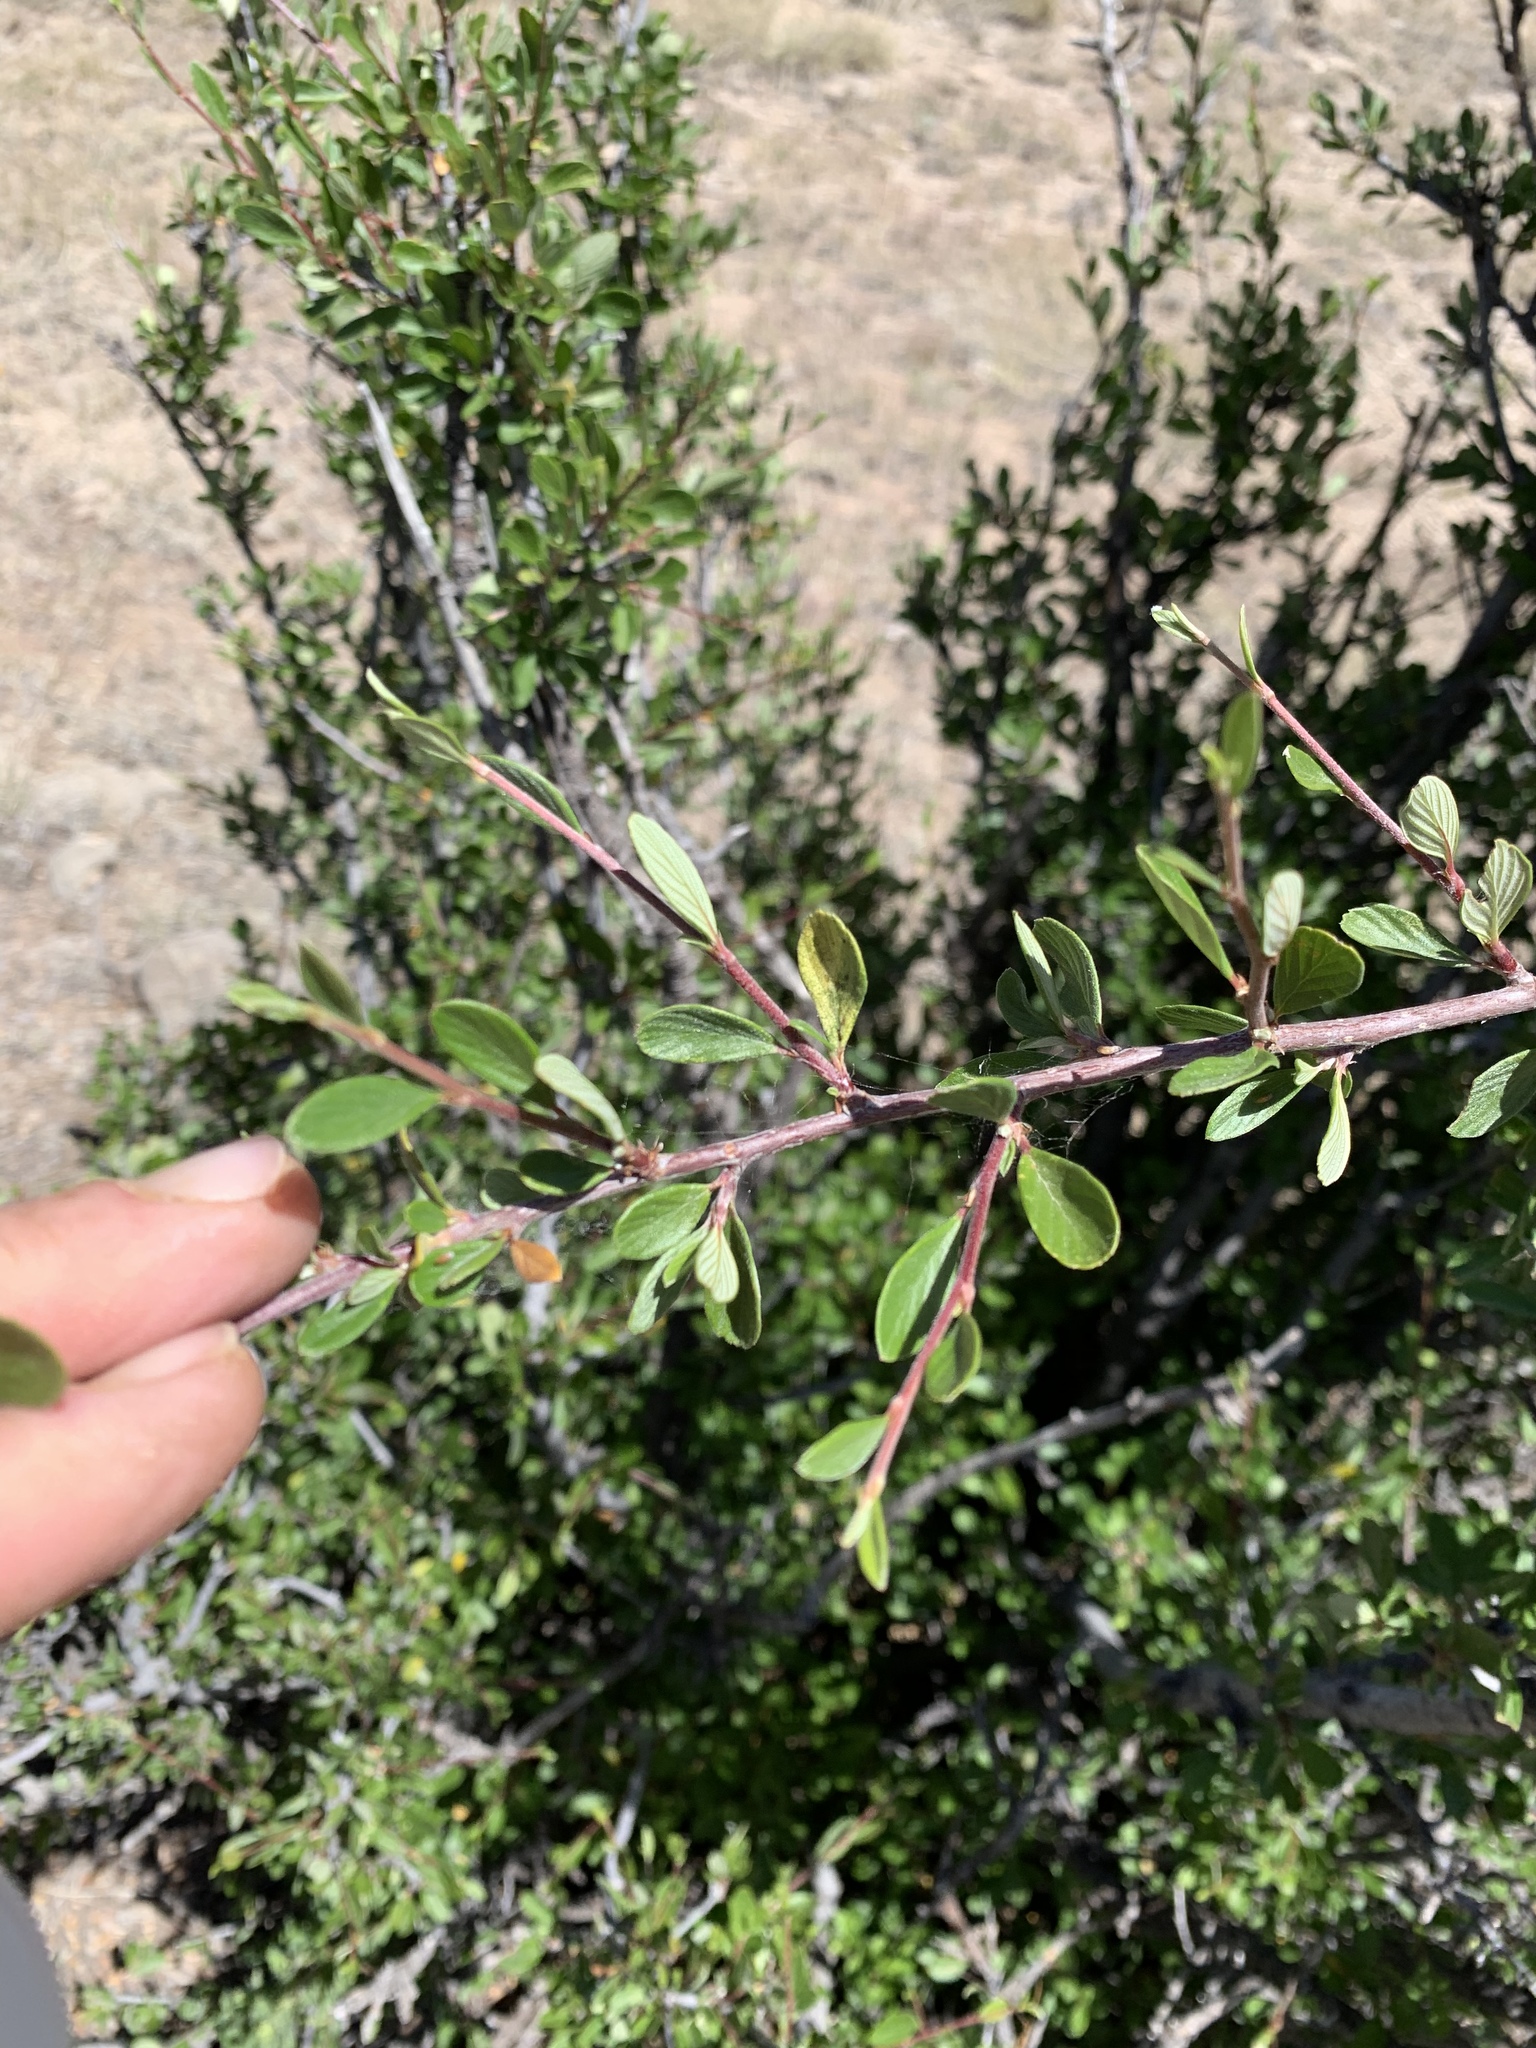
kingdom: Plantae
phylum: Tracheophyta
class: Magnoliopsida
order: Rosales
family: Rosaceae
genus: Cercocarpus
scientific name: Cercocarpus breviflorus
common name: Wright's mountain-mahogany
